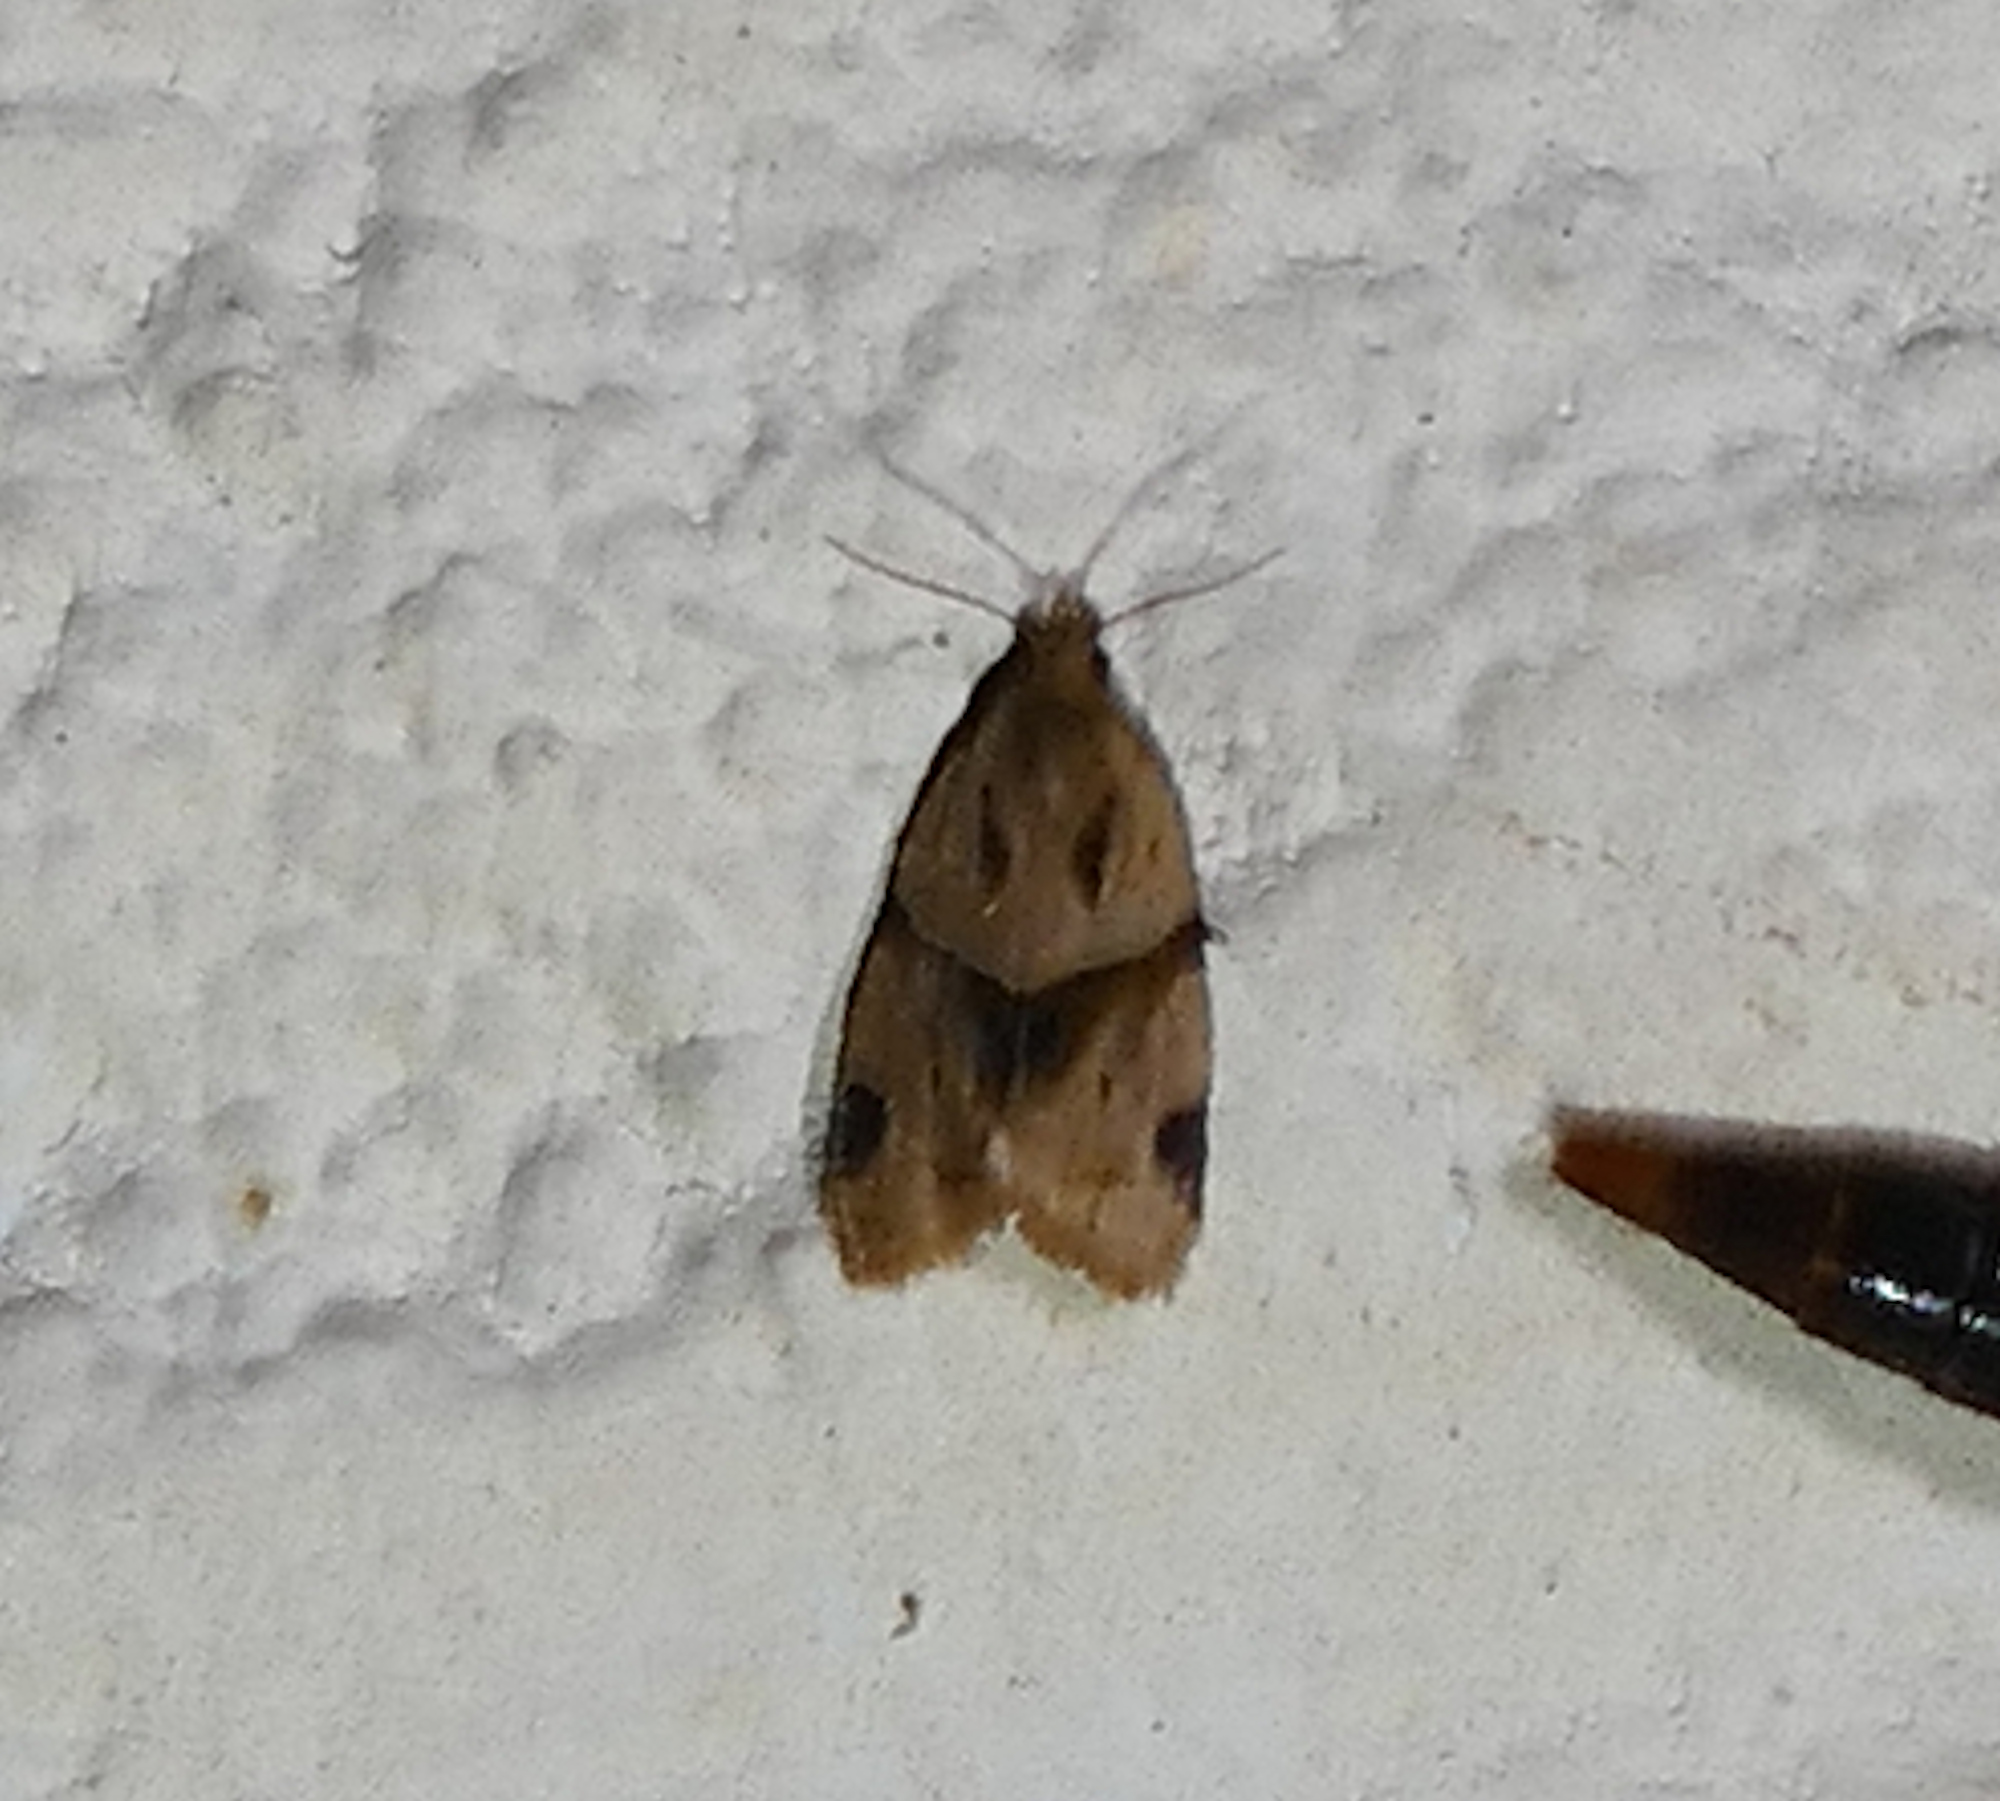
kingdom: Animalia
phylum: Arthropoda
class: Insecta
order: Lepidoptera
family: Tortricidae
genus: Clepsis
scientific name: Clepsis peritana
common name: Garden tortrix
